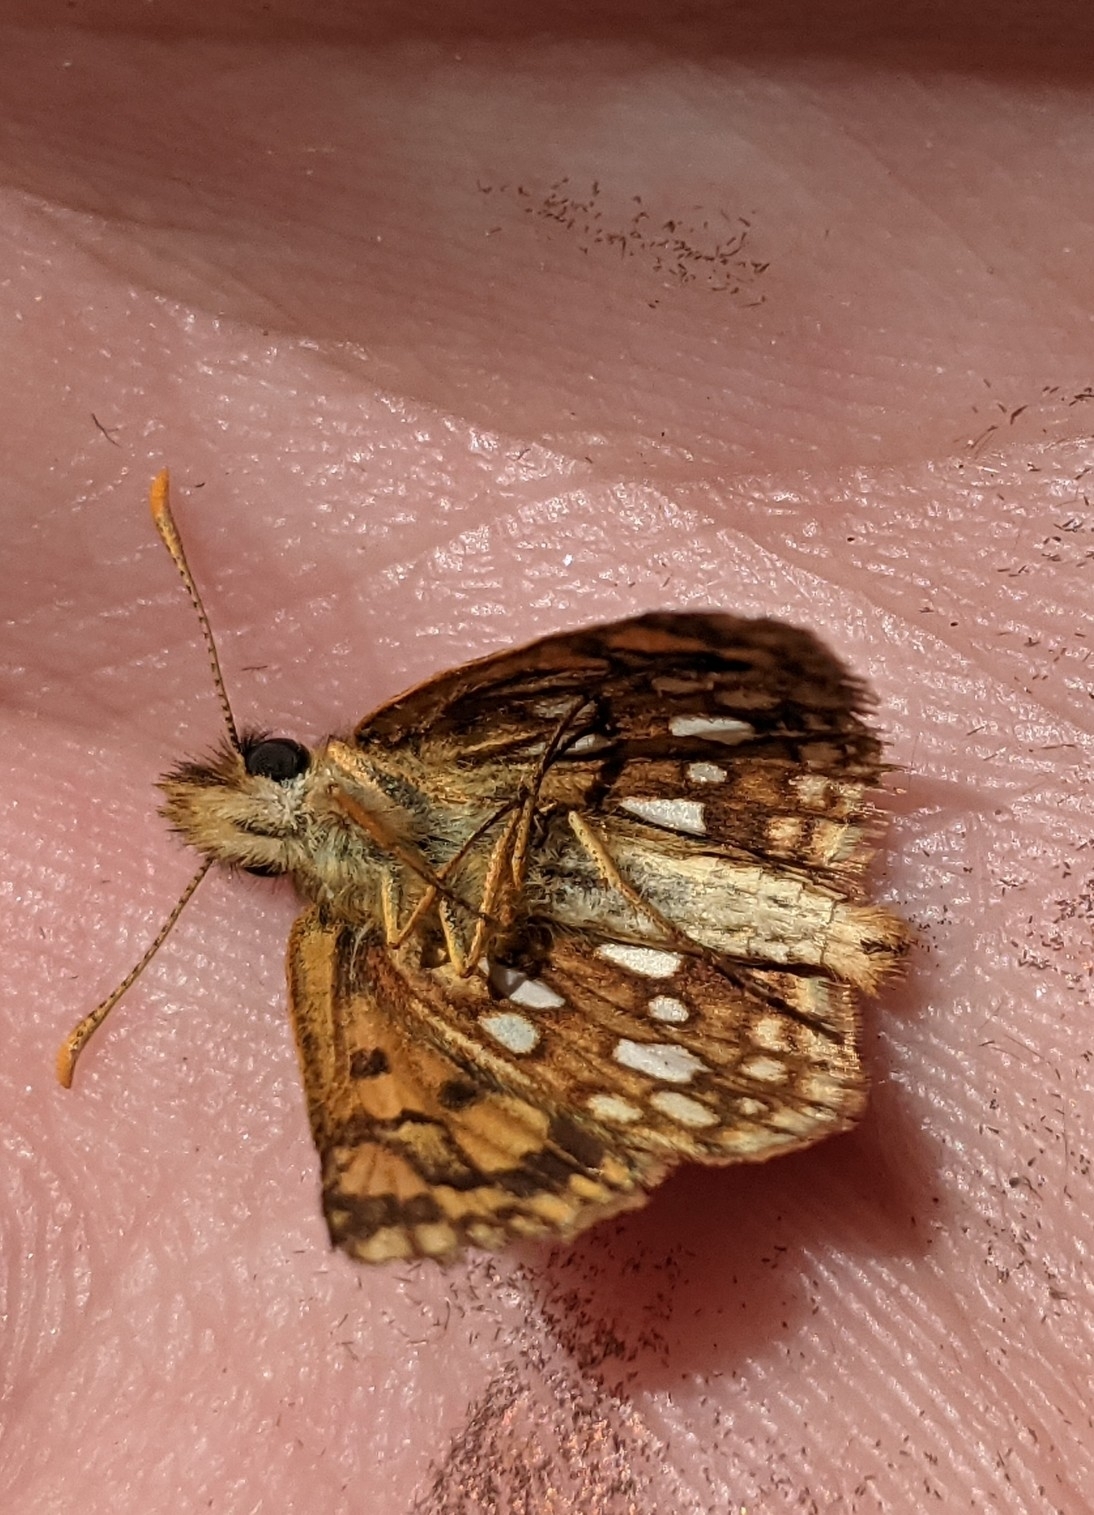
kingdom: Animalia
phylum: Arthropoda
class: Insecta
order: Lepidoptera
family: Hesperiidae
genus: Carterocephalus
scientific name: Carterocephalus mandan
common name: Arctic skipperling
